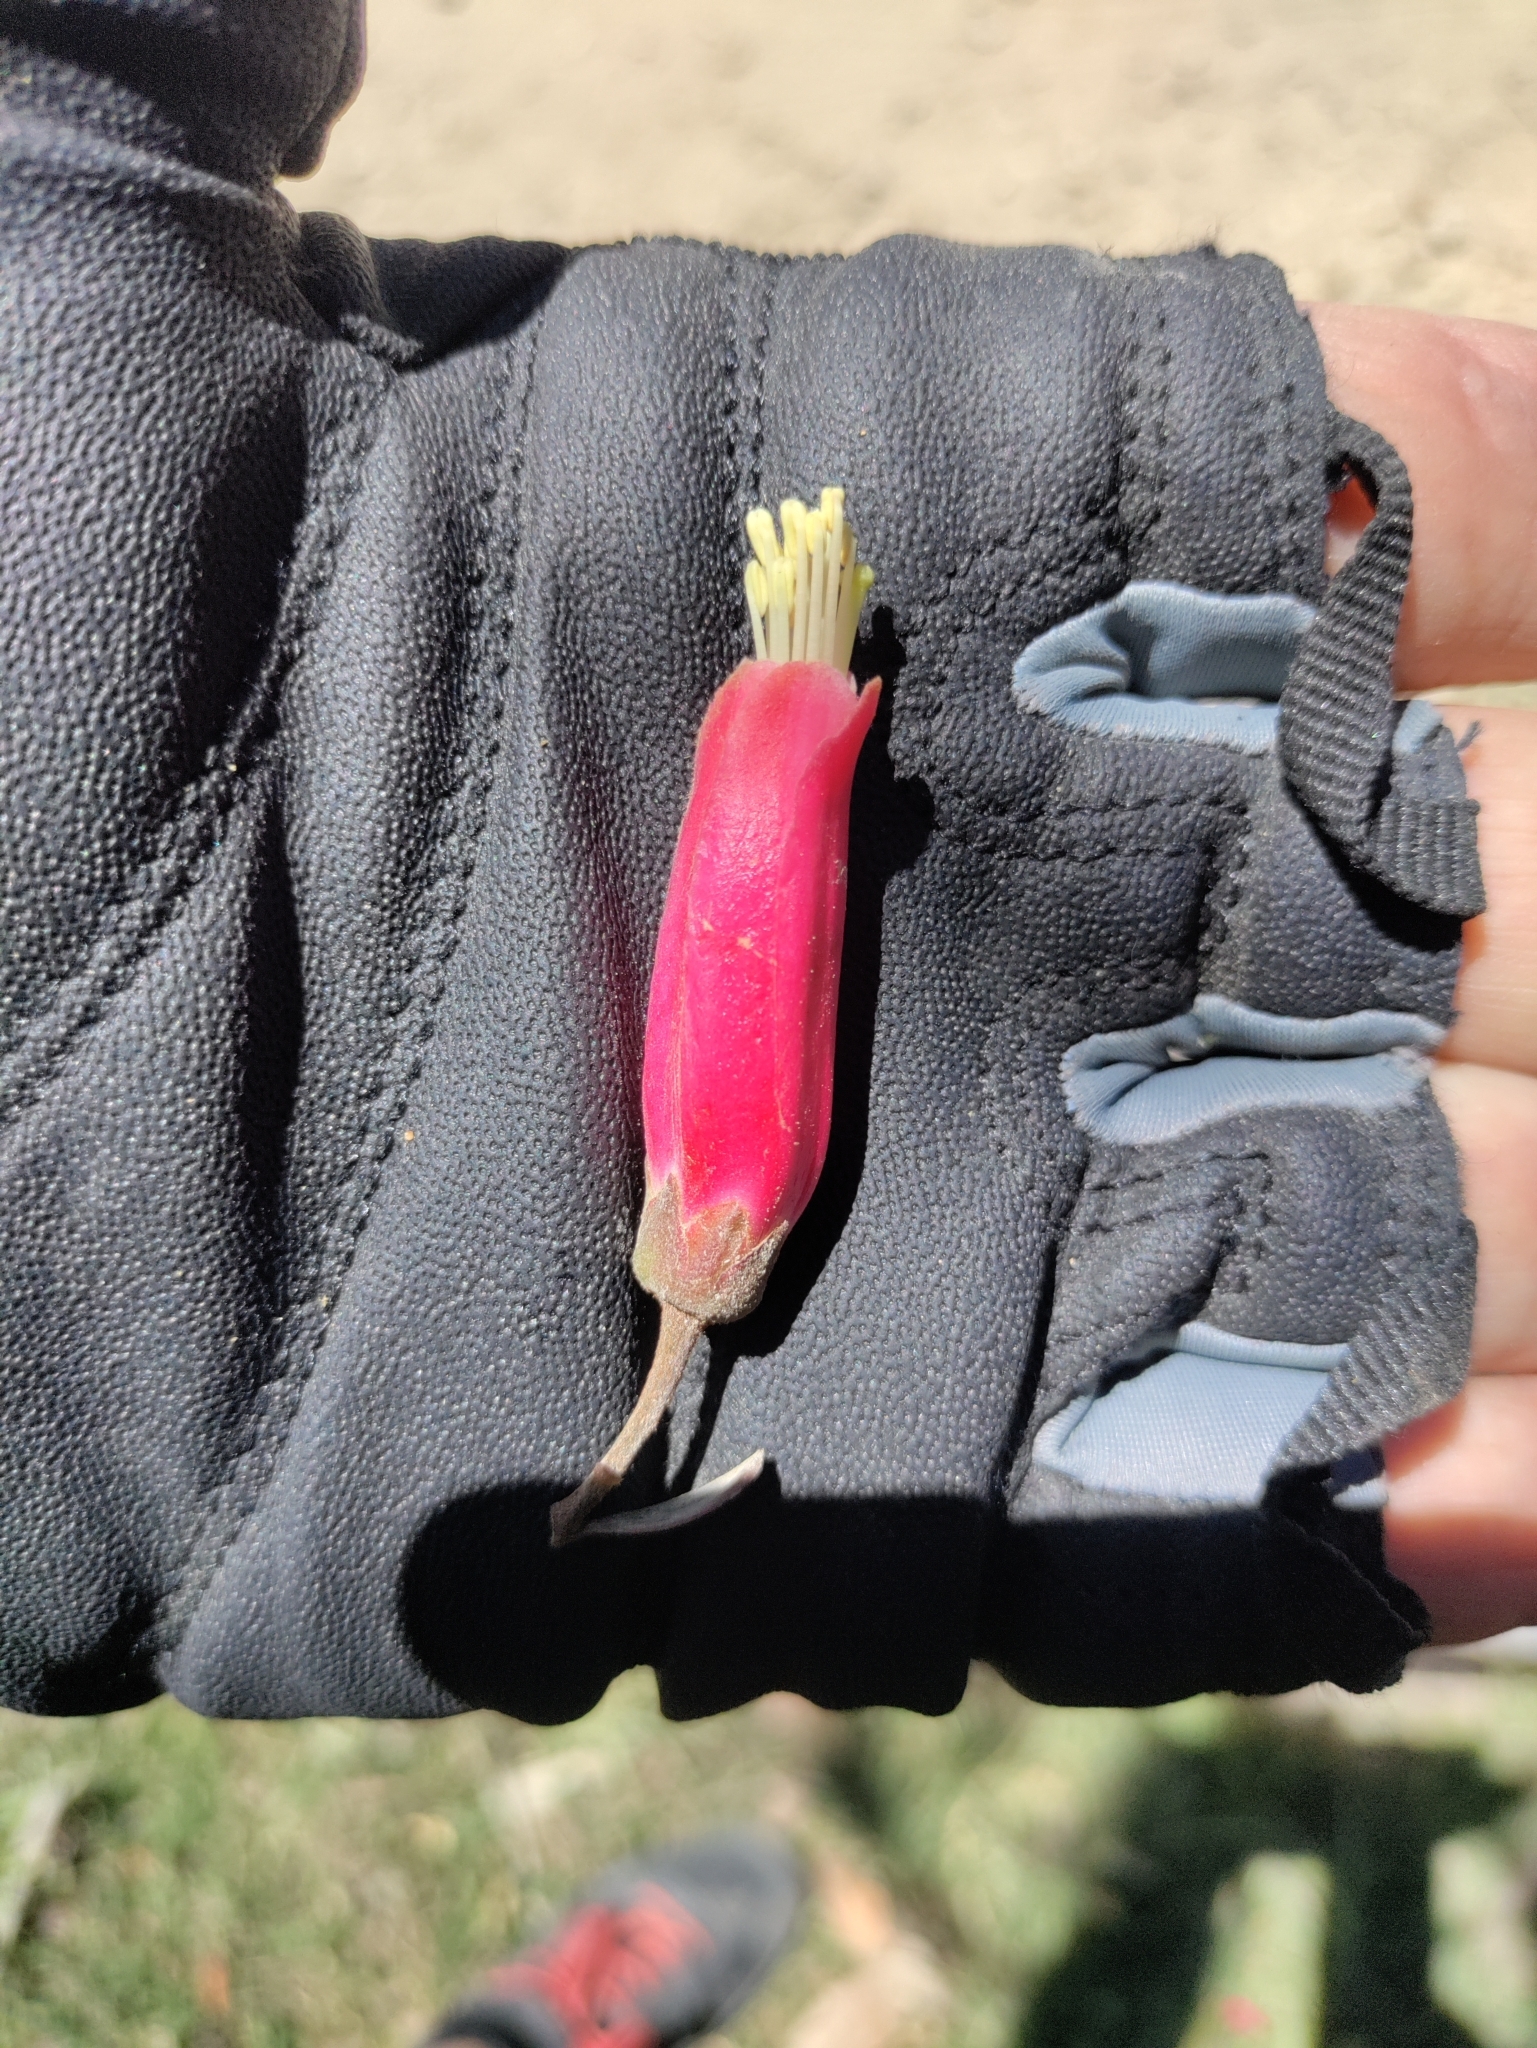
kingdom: Plantae
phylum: Tracheophyta
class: Magnoliopsida
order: Ericales
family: Ericaceae
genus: Bejaria
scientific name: Bejaria resinosa
